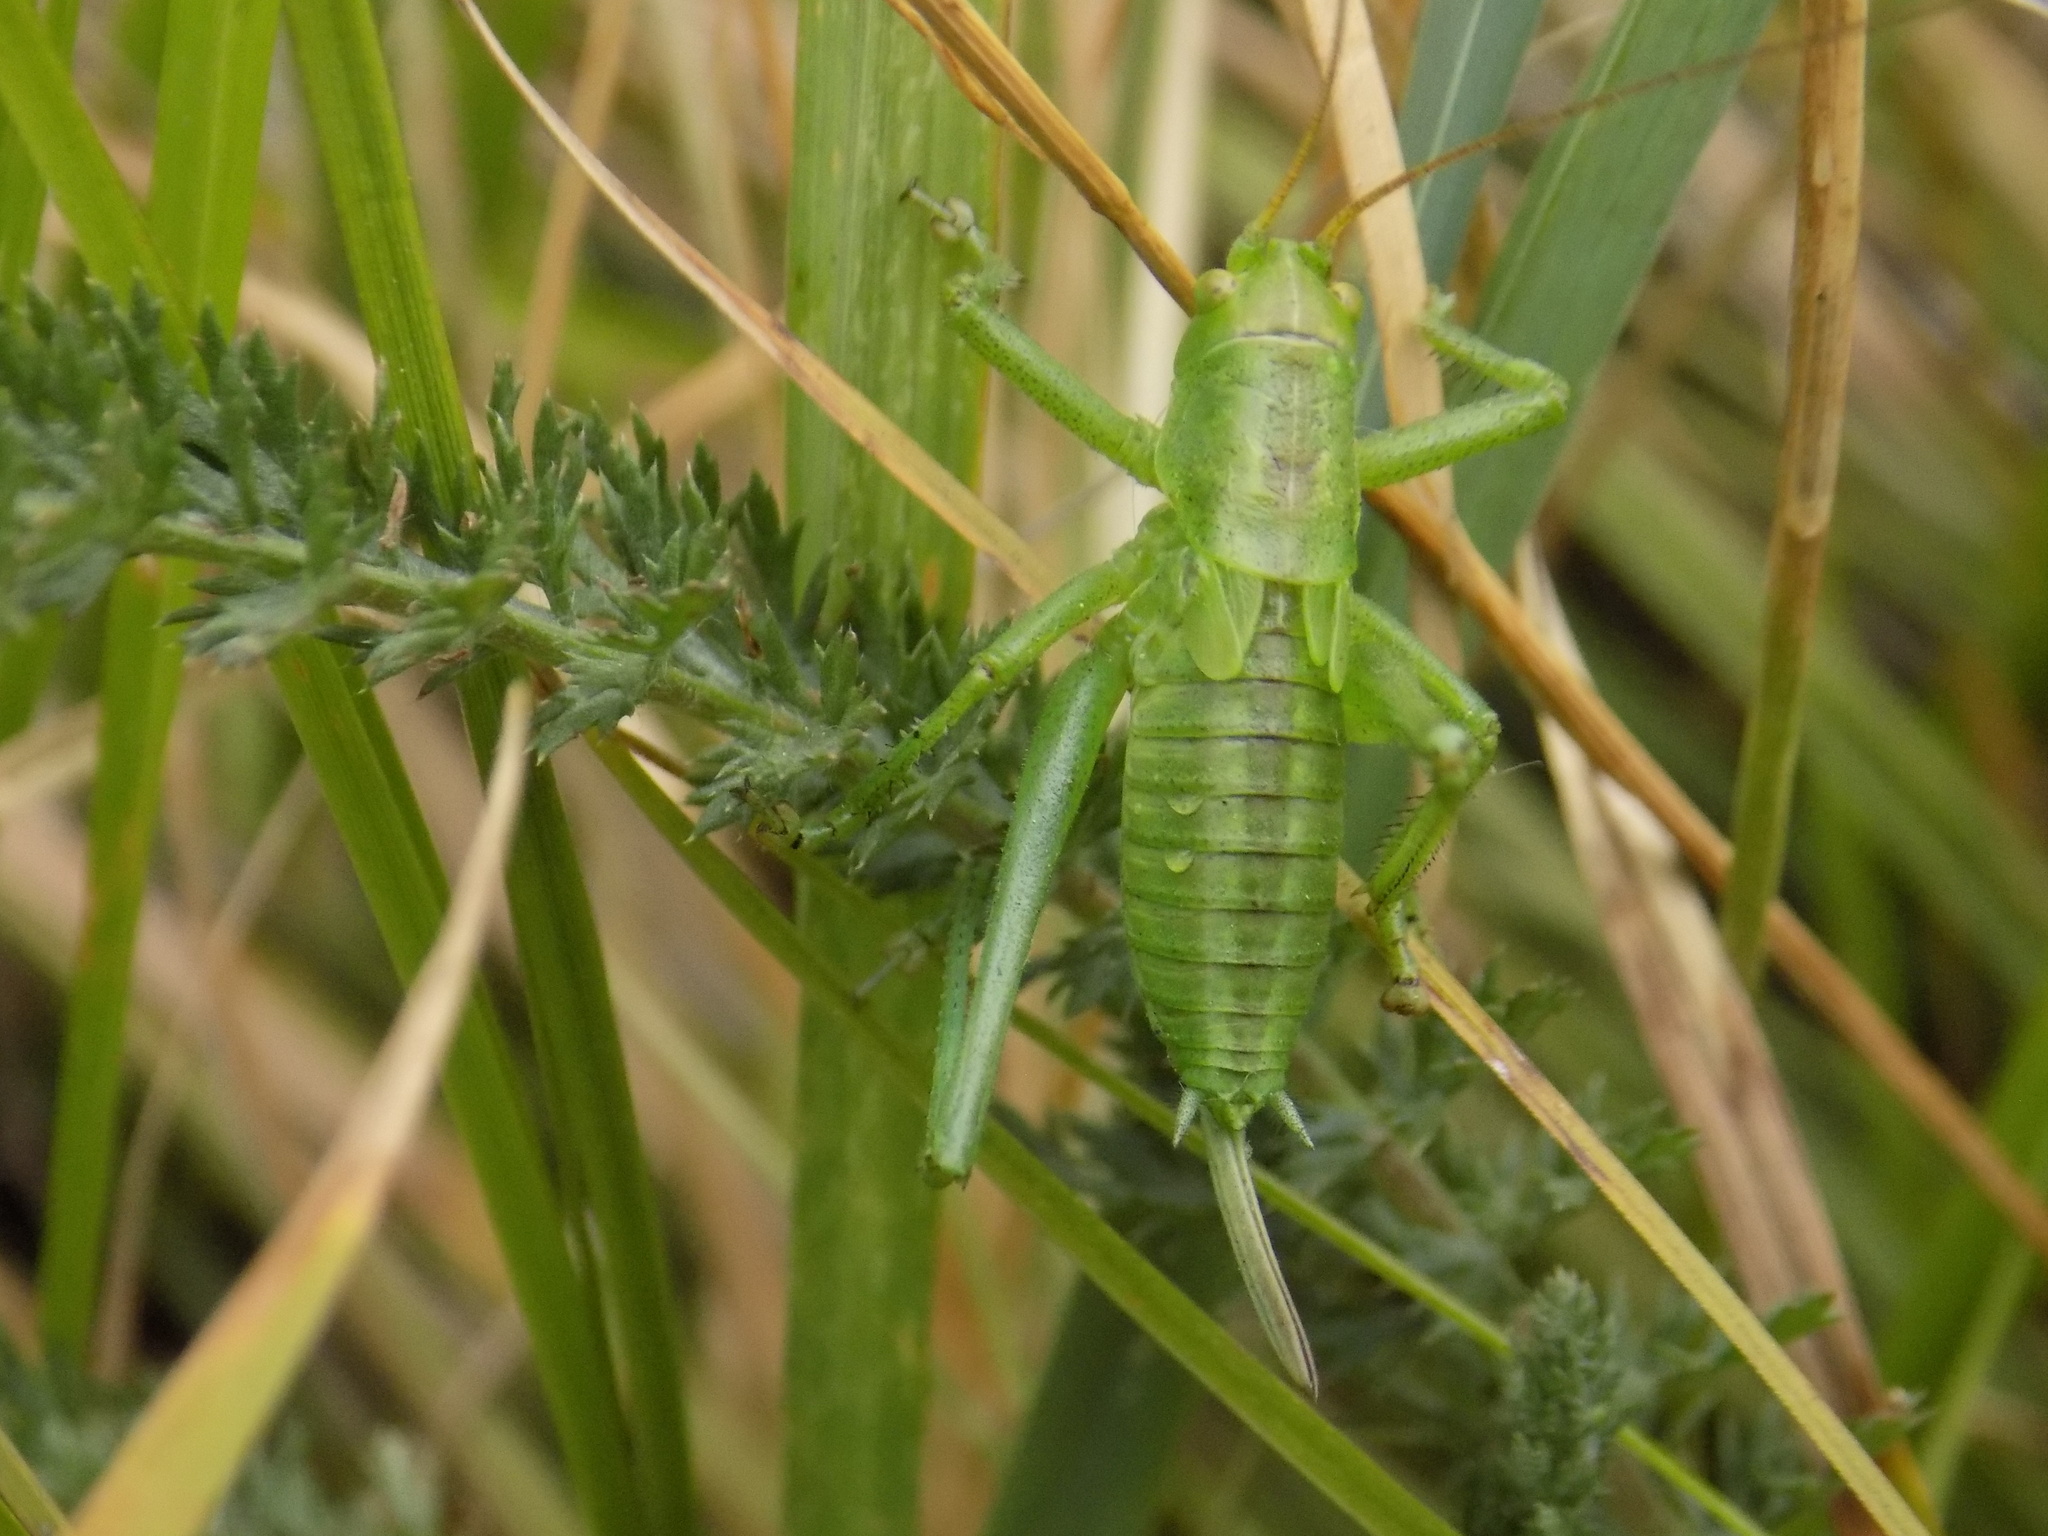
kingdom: Animalia
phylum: Arthropoda
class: Insecta
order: Orthoptera
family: Tettigoniidae
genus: Tettigonia
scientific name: Tettigonia cantans
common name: Upland green bush-cricket
